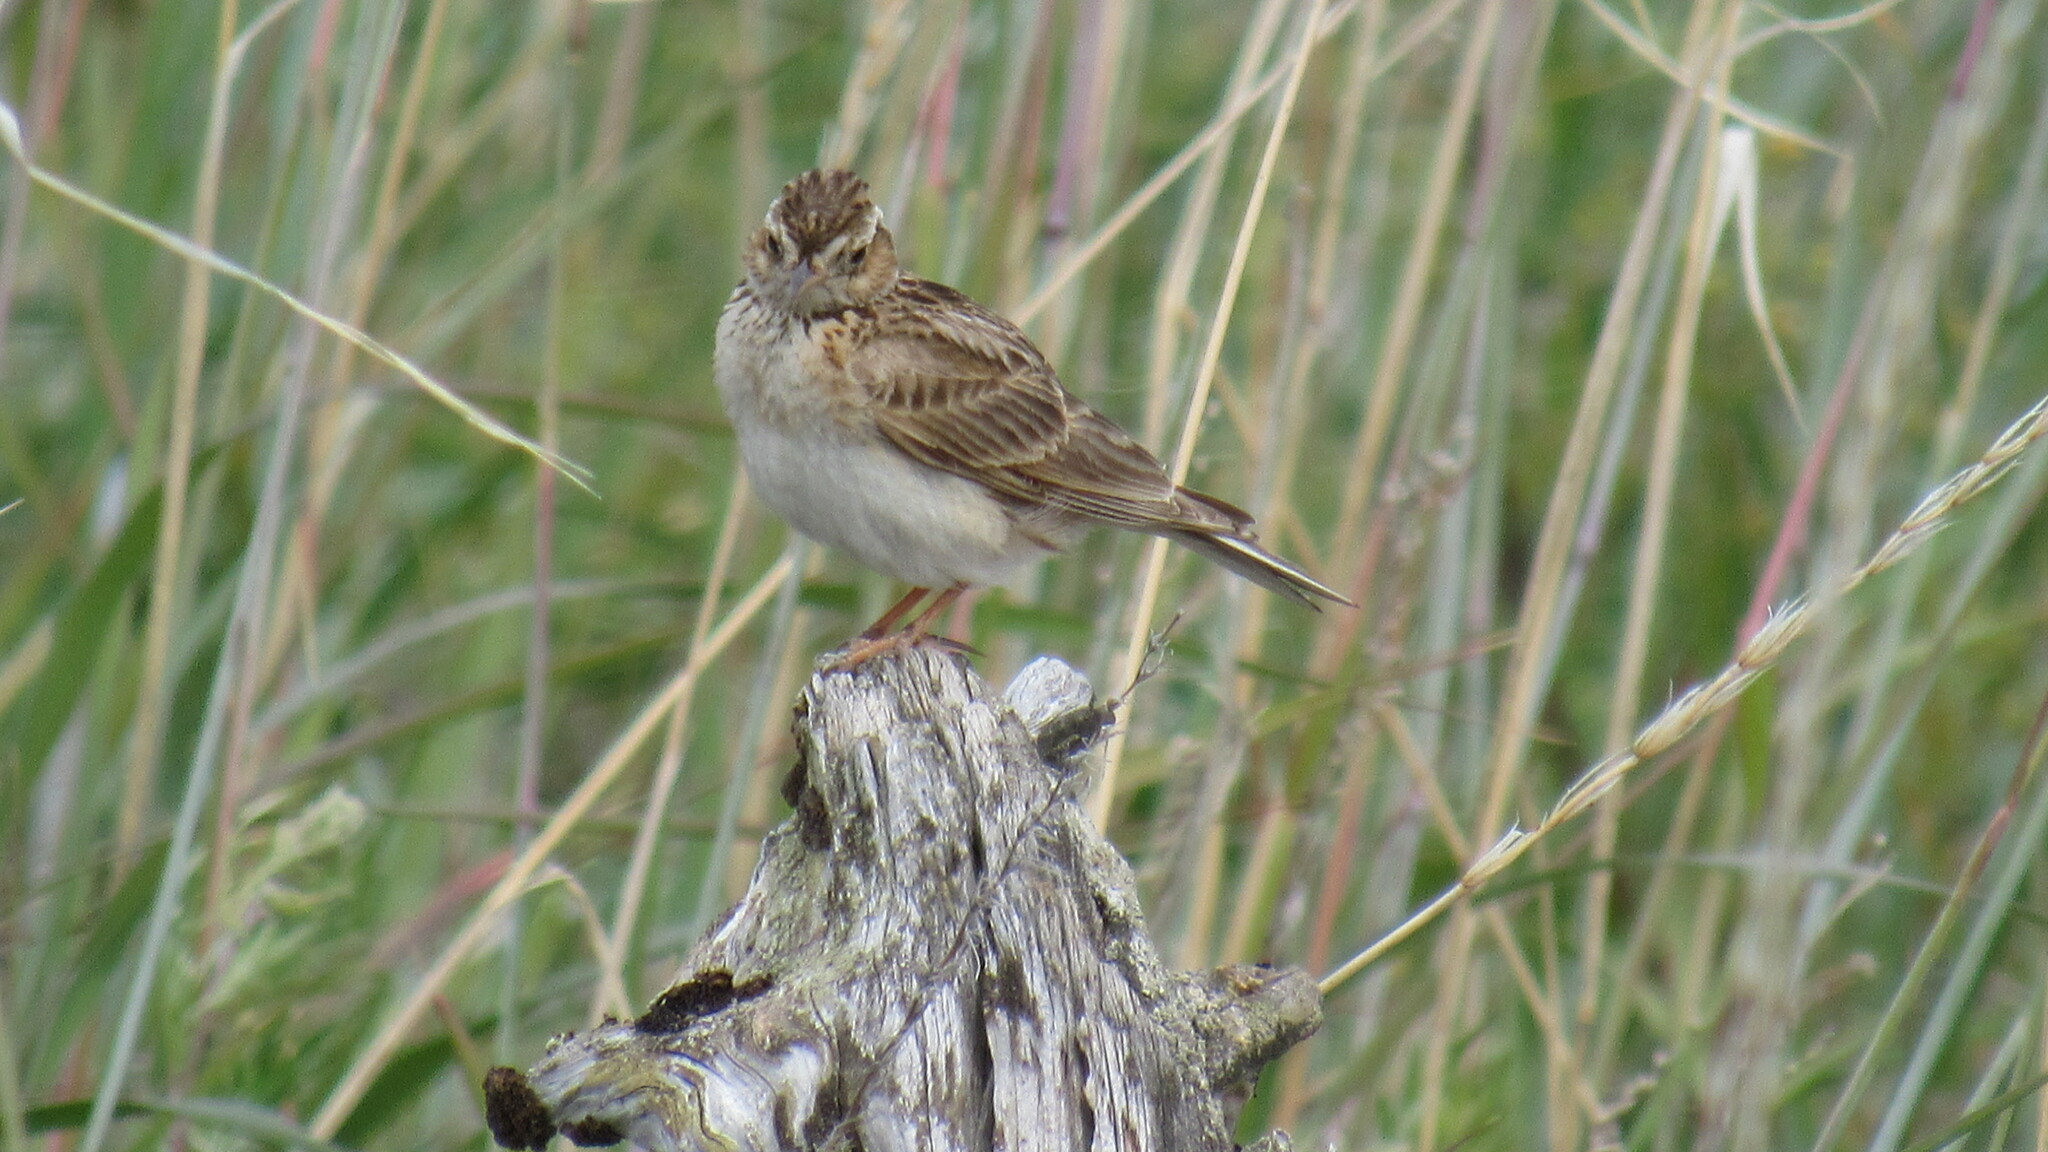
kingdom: Animalia
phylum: Chordata
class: Aves
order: Passeriformes
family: Alaudidae
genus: Alauda
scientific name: Alauda arvensis
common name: Eurasian skylark
